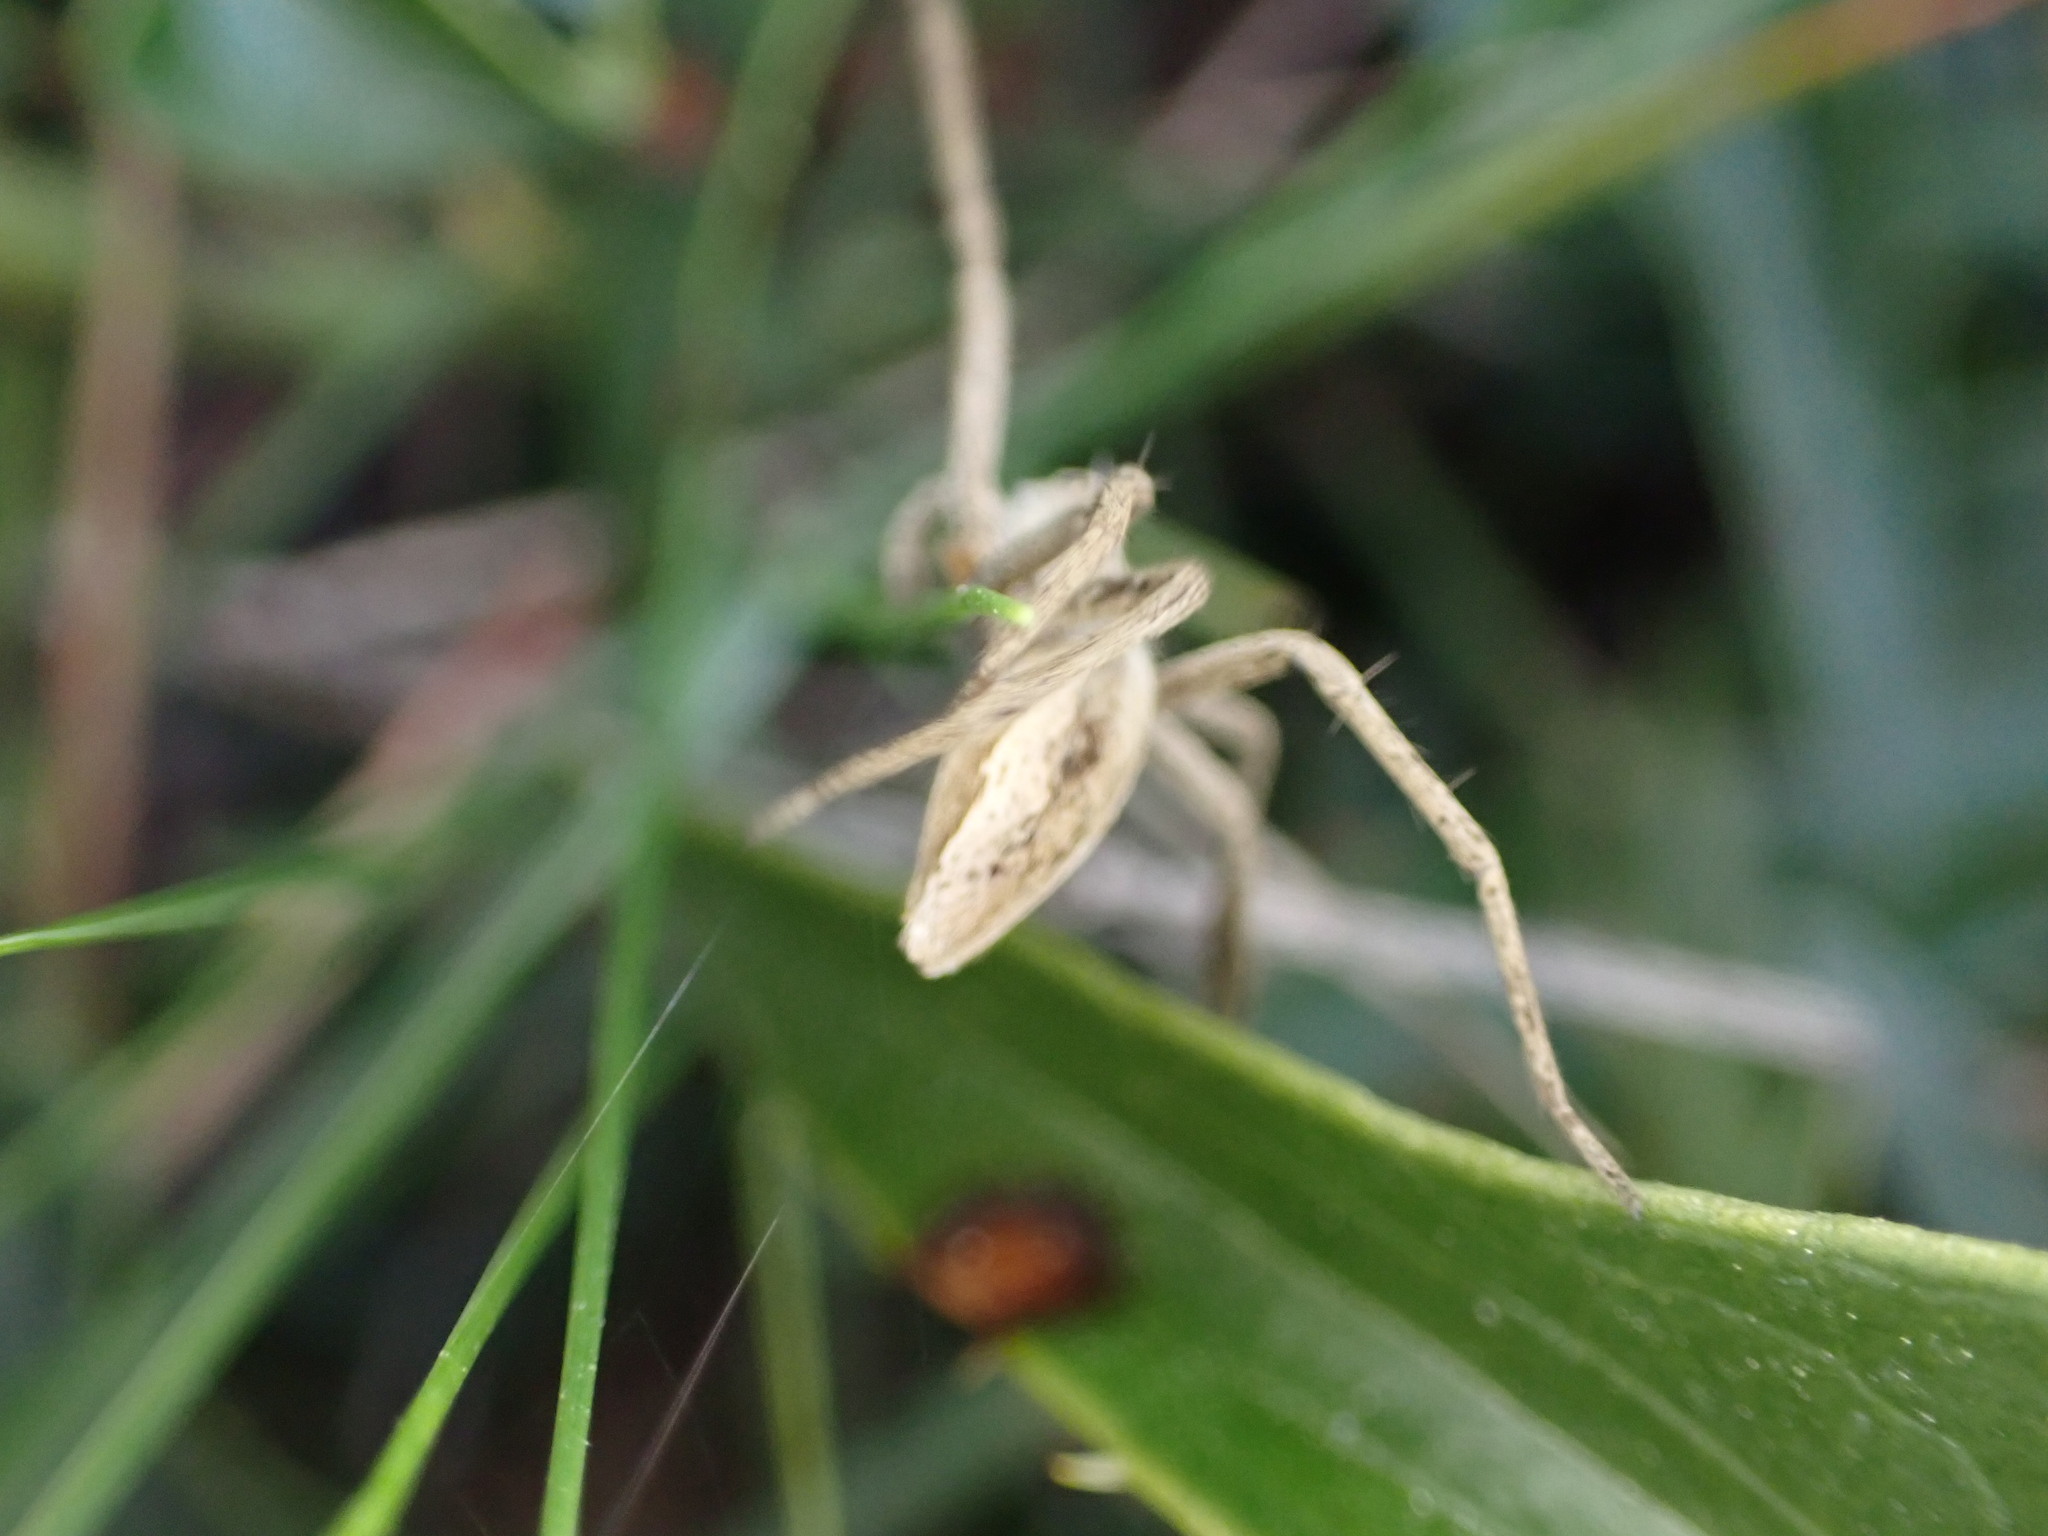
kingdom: Animalia
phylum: Arthropoda
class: Arachnida
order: Araneae
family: Pisauridae
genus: Pisaura
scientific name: Pisaura
